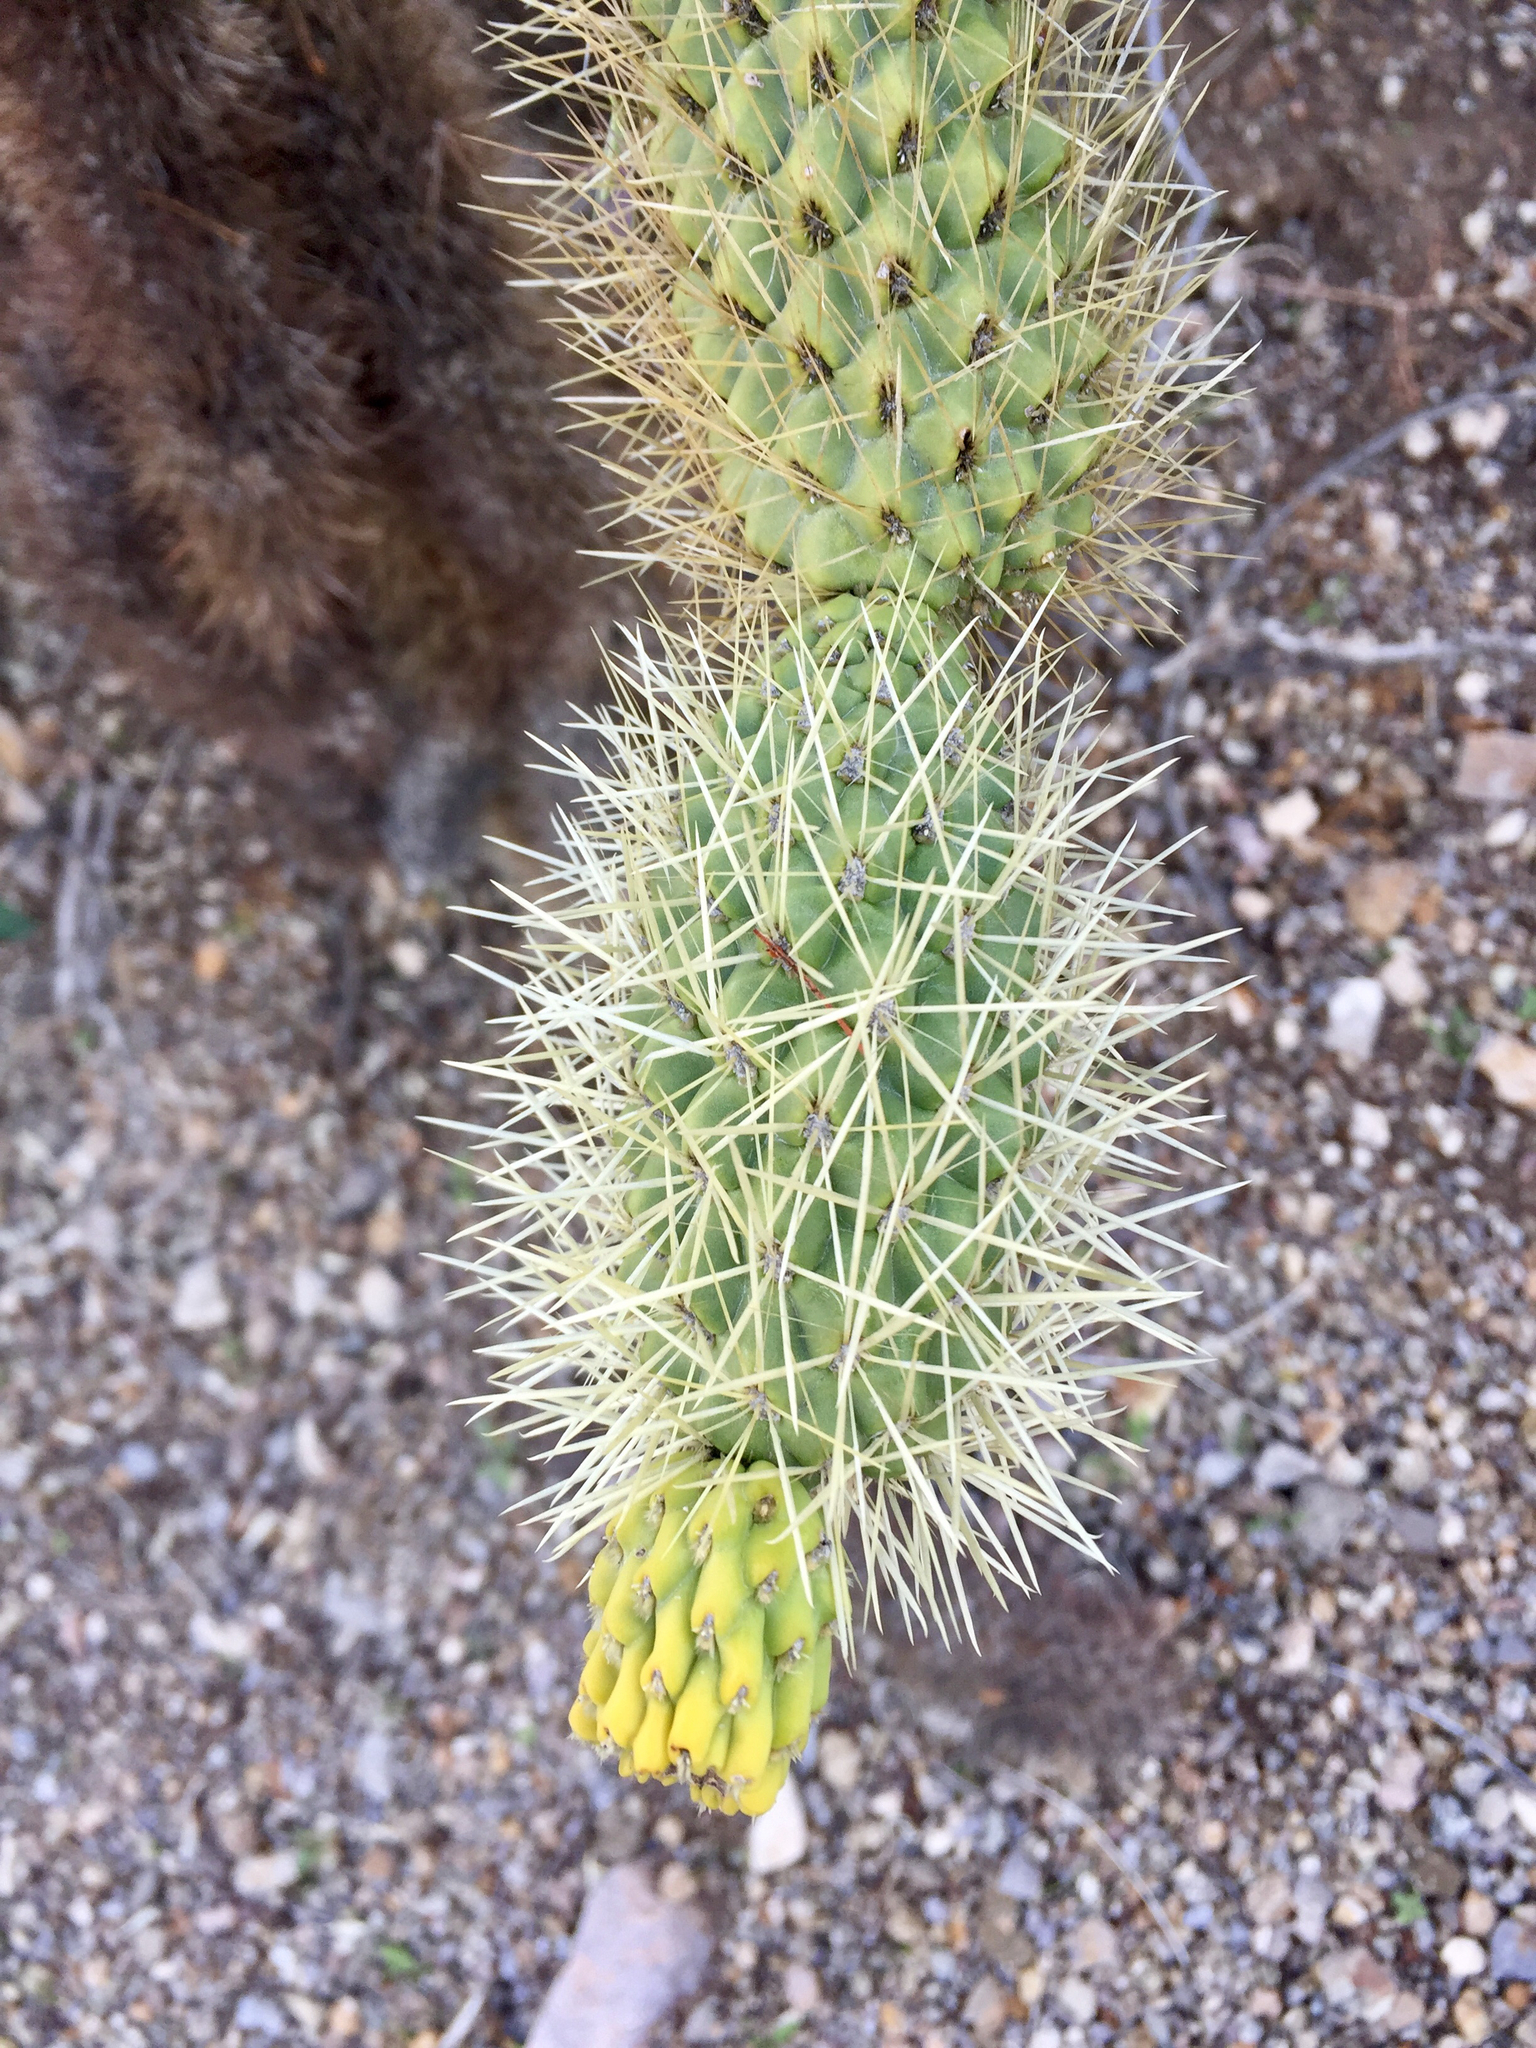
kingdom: Plantae
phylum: Tracheophyta
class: Magnoliopsida
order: Caryophyllales
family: Cactaceae
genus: Cylindropuntia
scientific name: Cylindropuntia fosbergii
